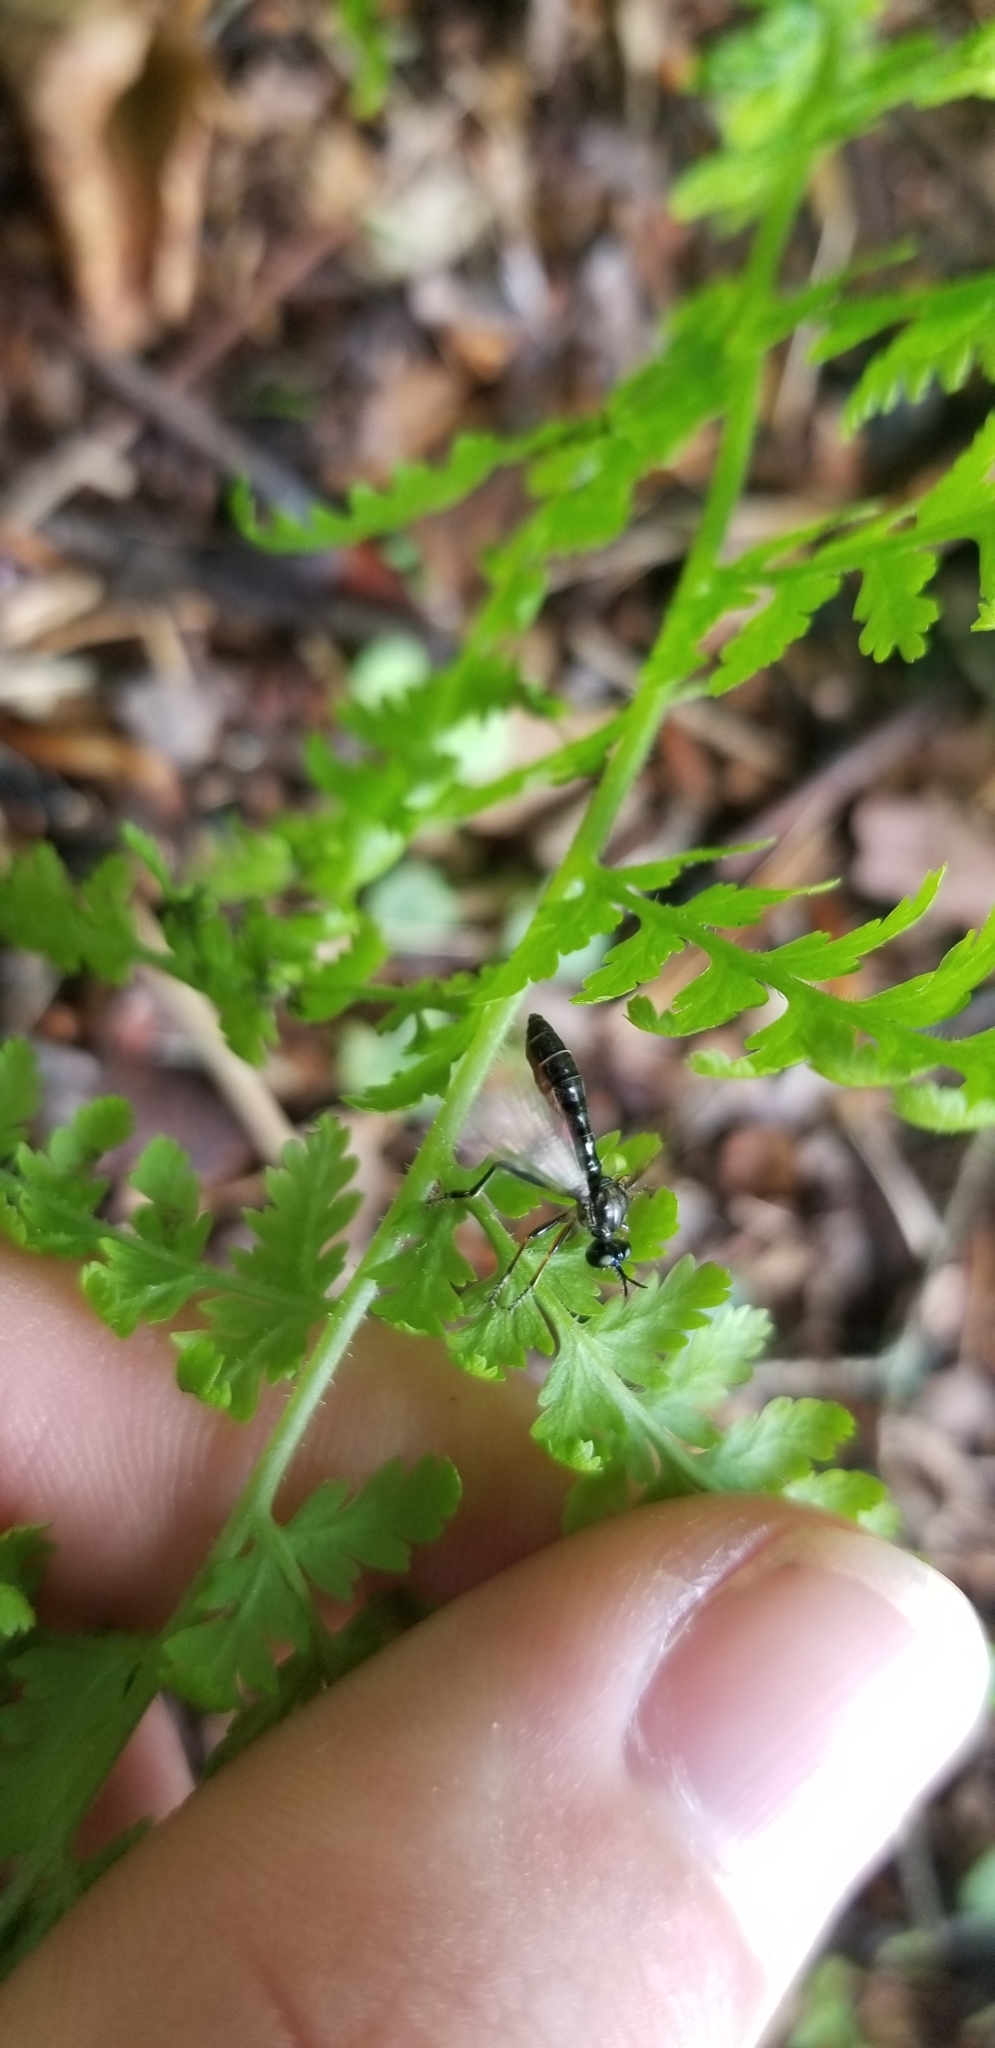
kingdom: Animalia
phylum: Arthropoda
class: Insecta
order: Diptera
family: Asilidae
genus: Dioctria
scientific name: Dioctria hyalipennis
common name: Stripe-legged robberfly
